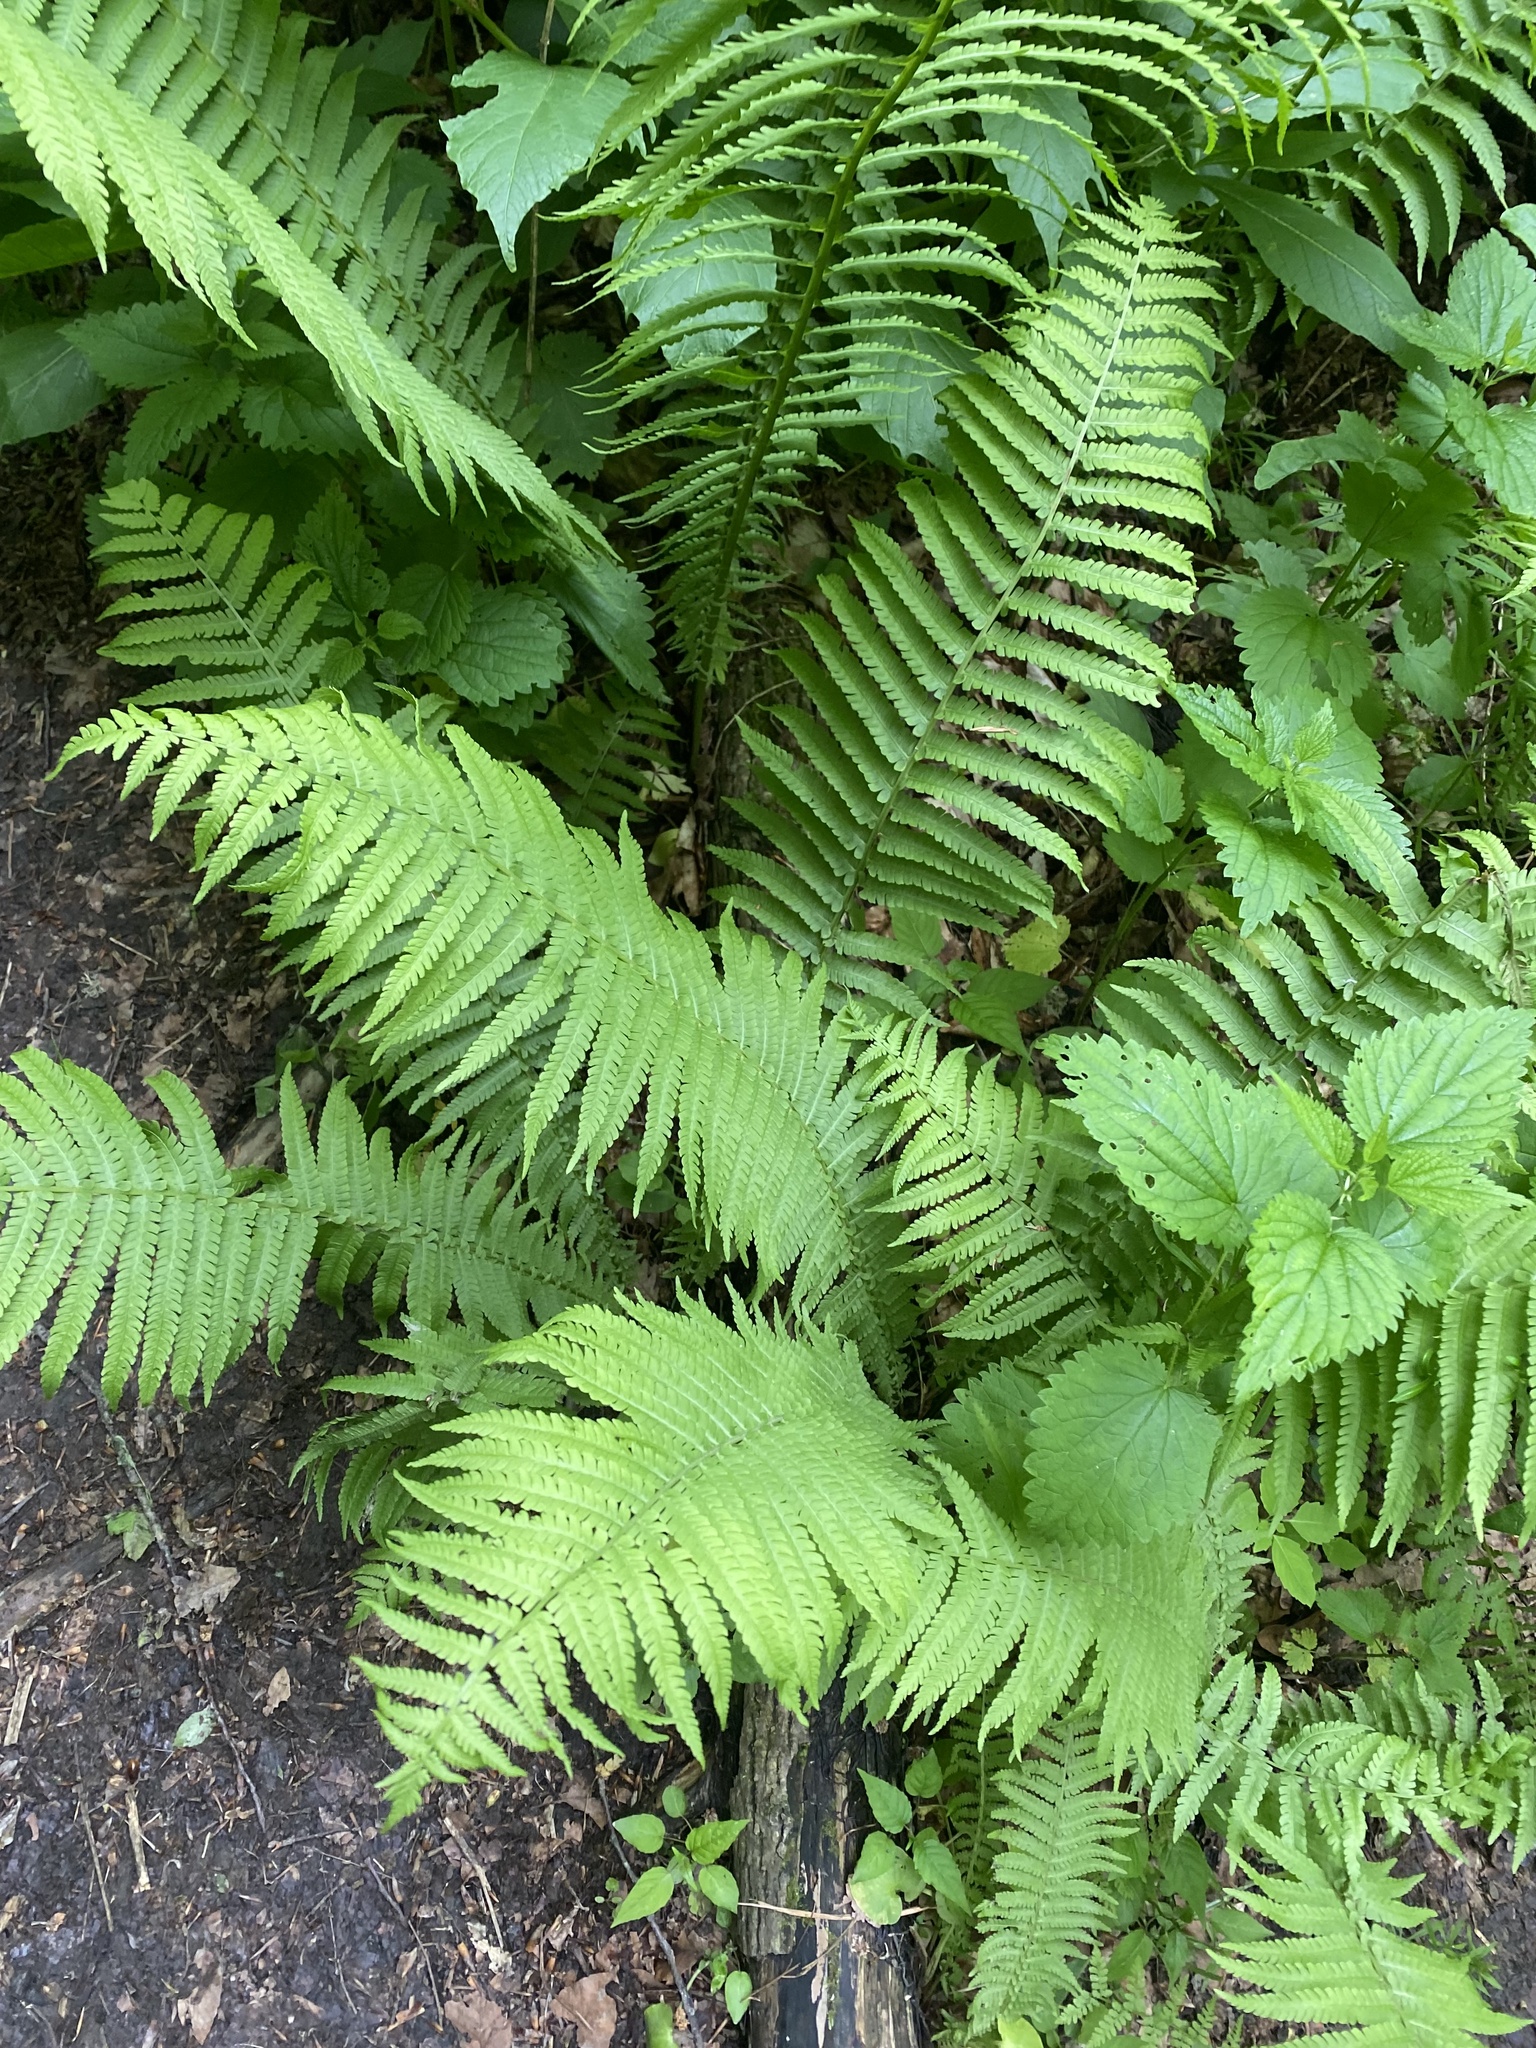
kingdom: Plantae
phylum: Tracheophyta
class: Polypodiopsida
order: Polypodiales
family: Onocleaceae
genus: Matteuccia
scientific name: Matteuccia struthiopteris
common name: Ostrich fern
